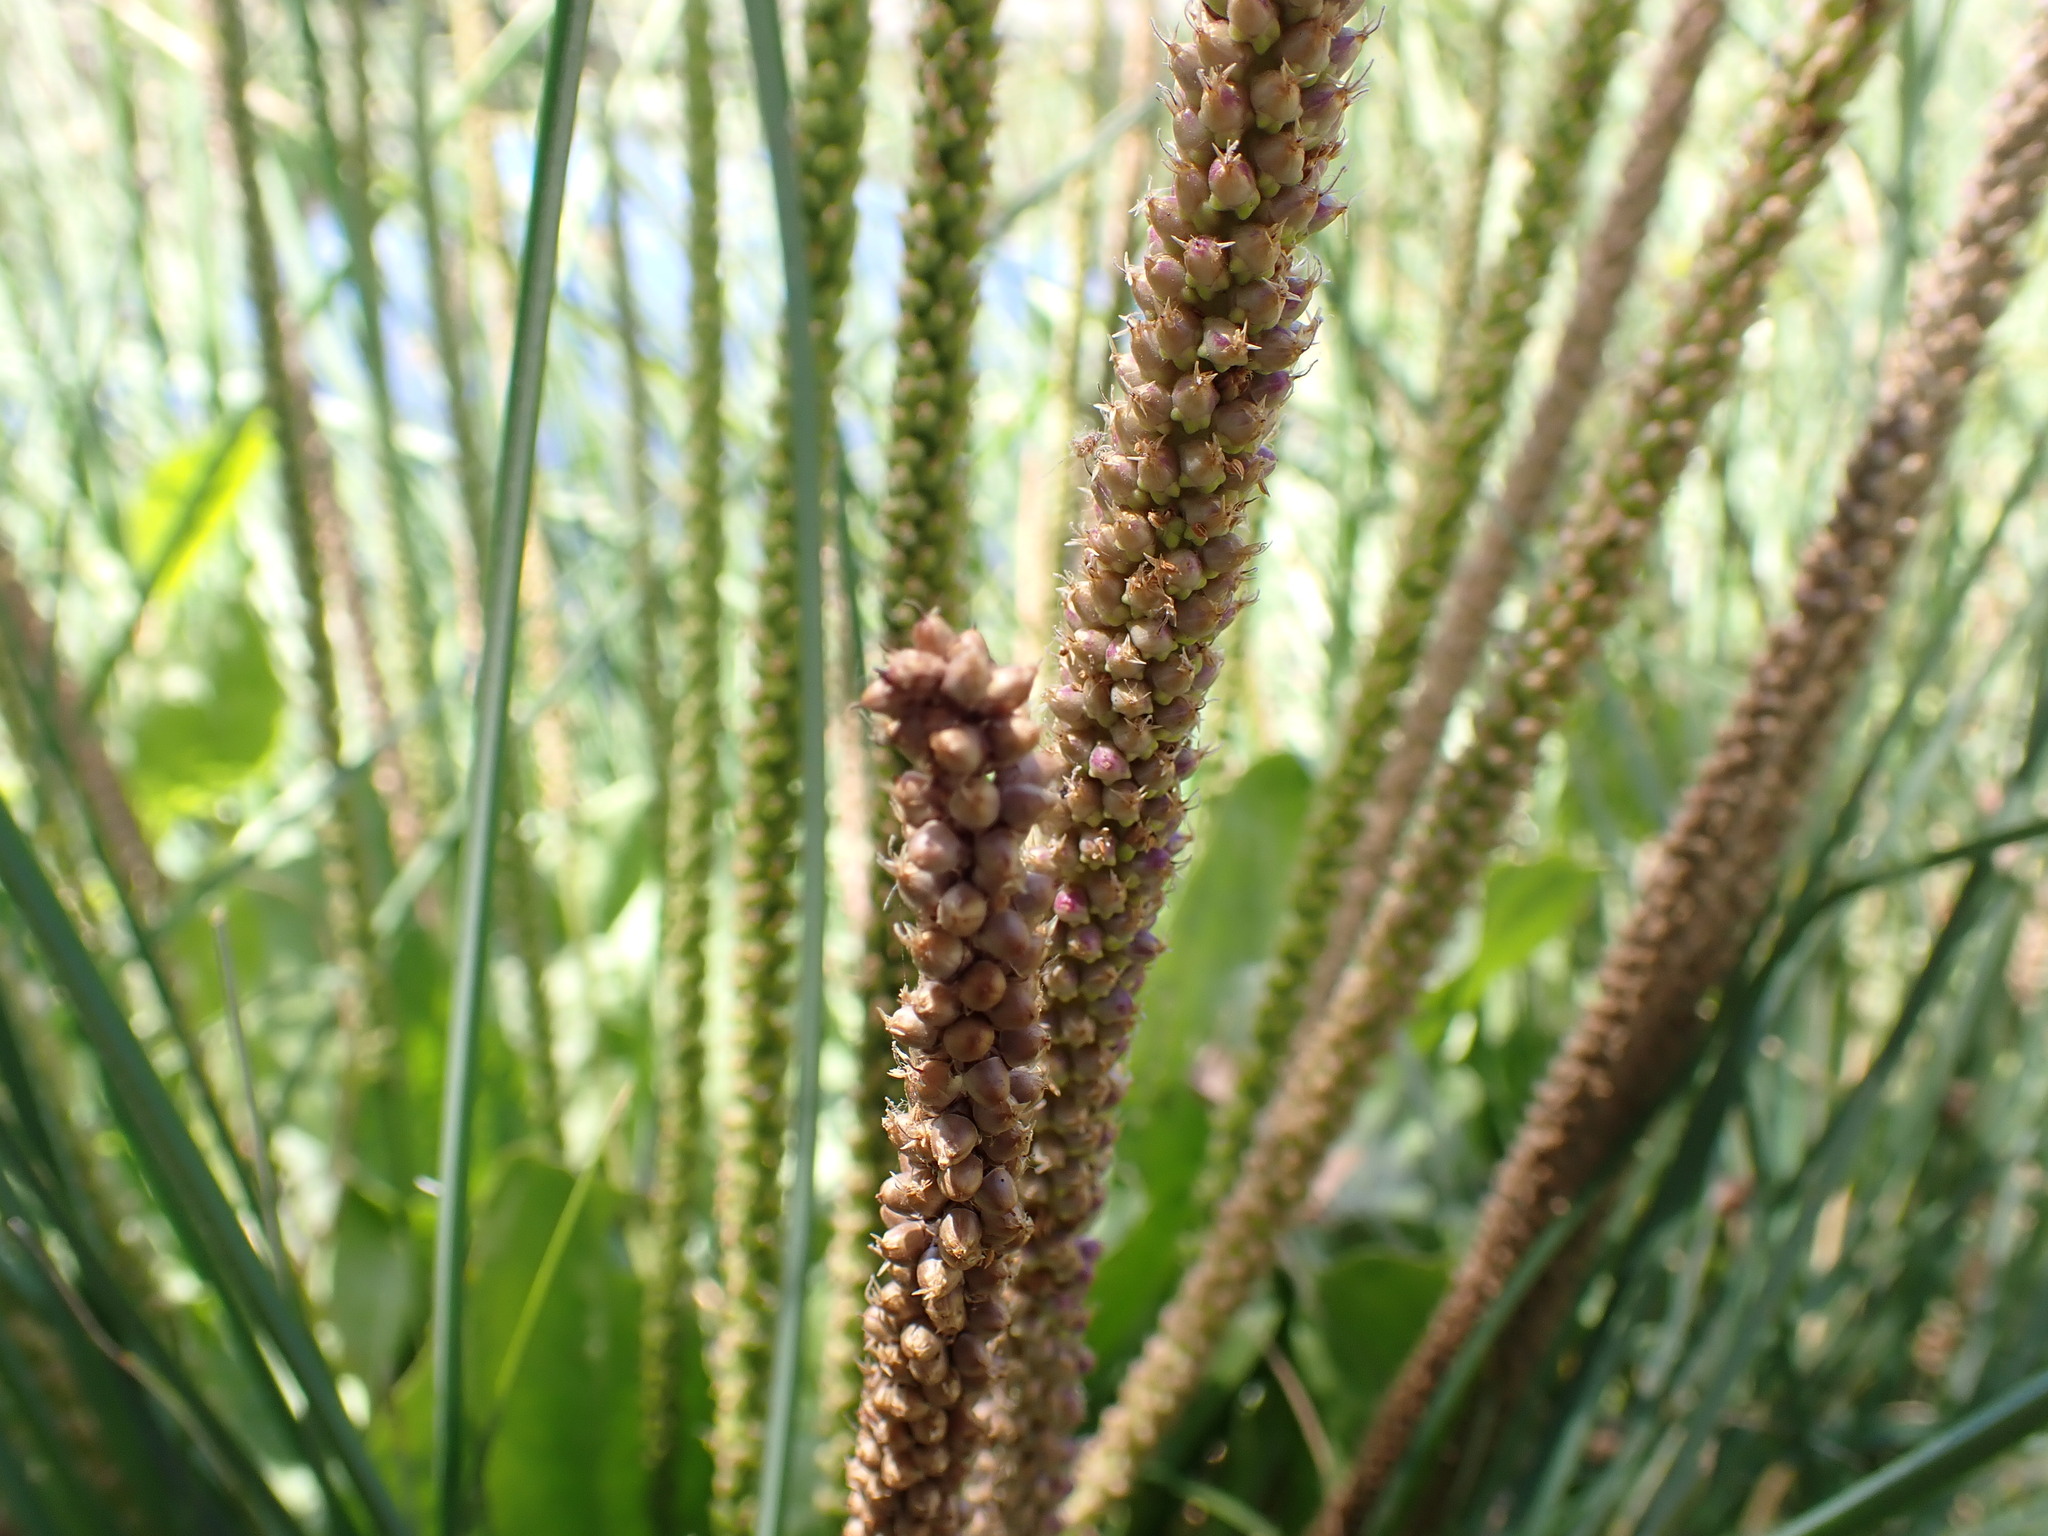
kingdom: Plantae
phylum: Tracheophyta
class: Magnoliopsida
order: Lamiales
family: Plantaginaceae
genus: Plantago
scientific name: Plantago major
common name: Common plantain
